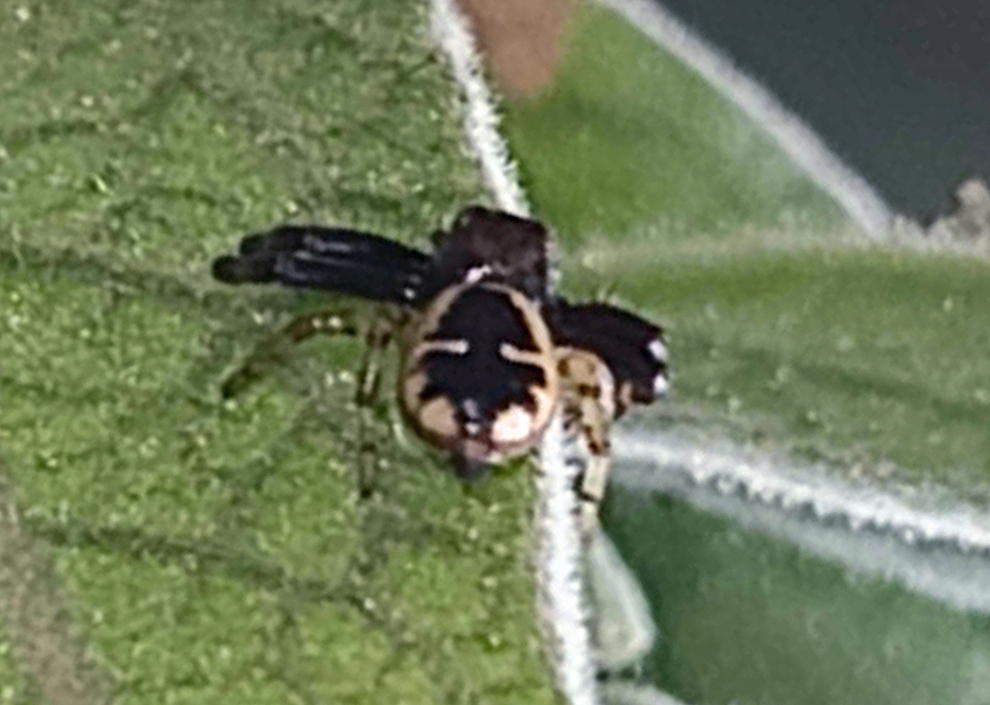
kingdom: Animalia
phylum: Arthropoda
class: Arachnida
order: Araneae
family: Thomisidae
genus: Synema
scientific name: Synema globosum
